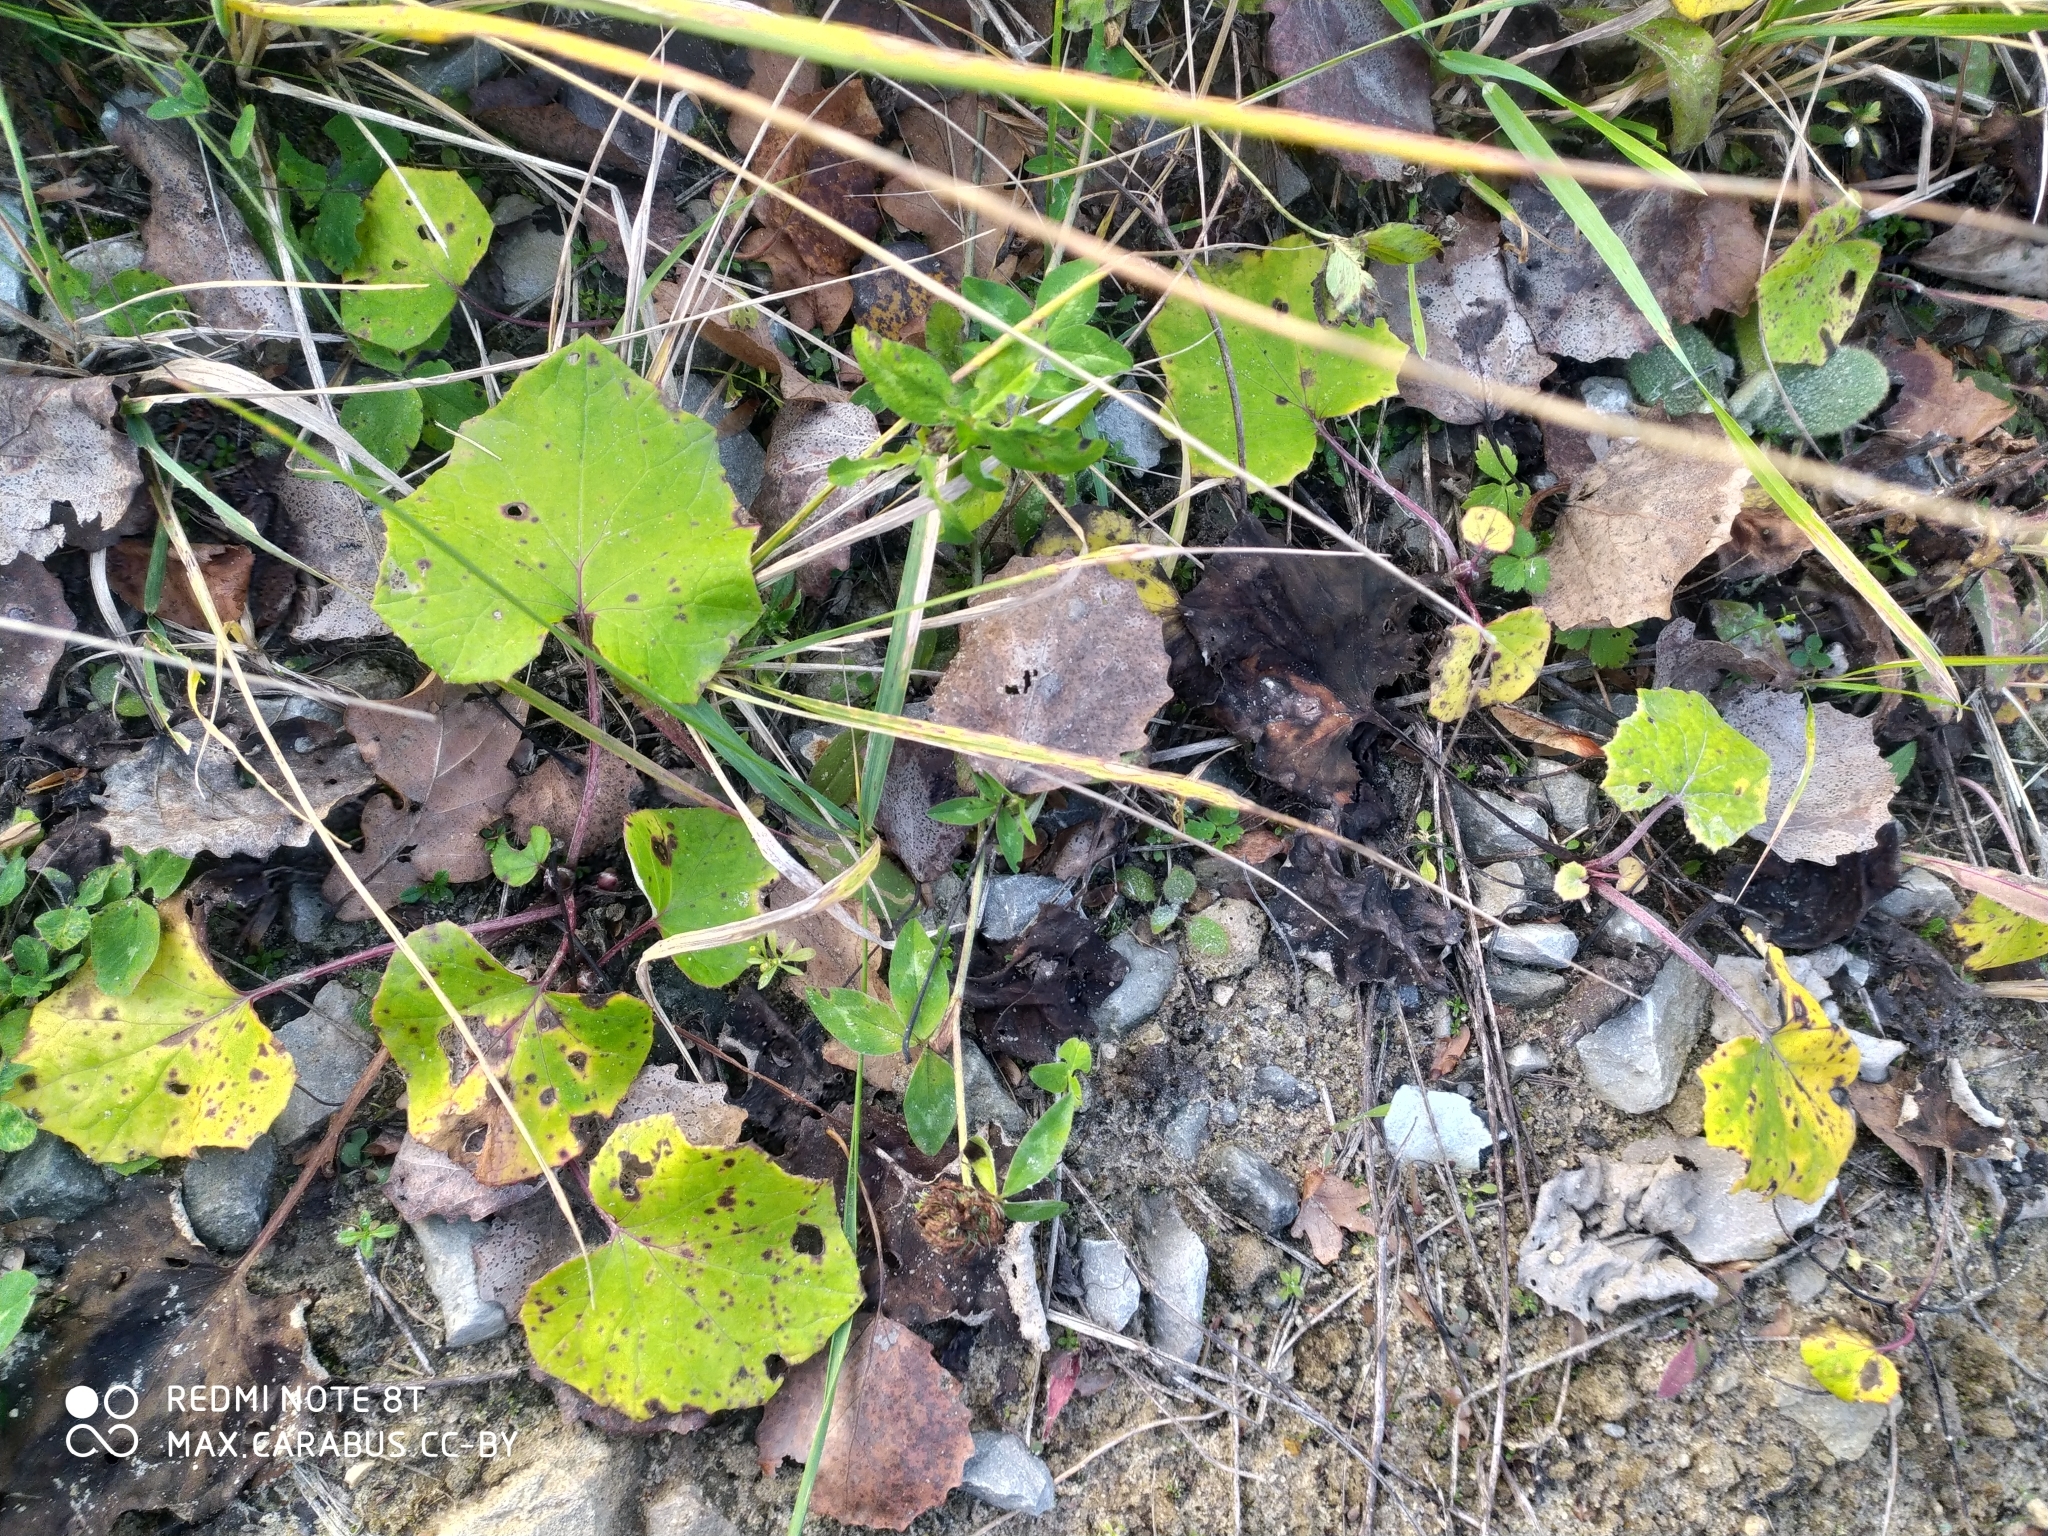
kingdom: Plantae
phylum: Tracheophyta
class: Magnoliopsida
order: Asterales
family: Asteraceae
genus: Tussilago
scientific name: Tussilago farfara
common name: Coltsfoot
